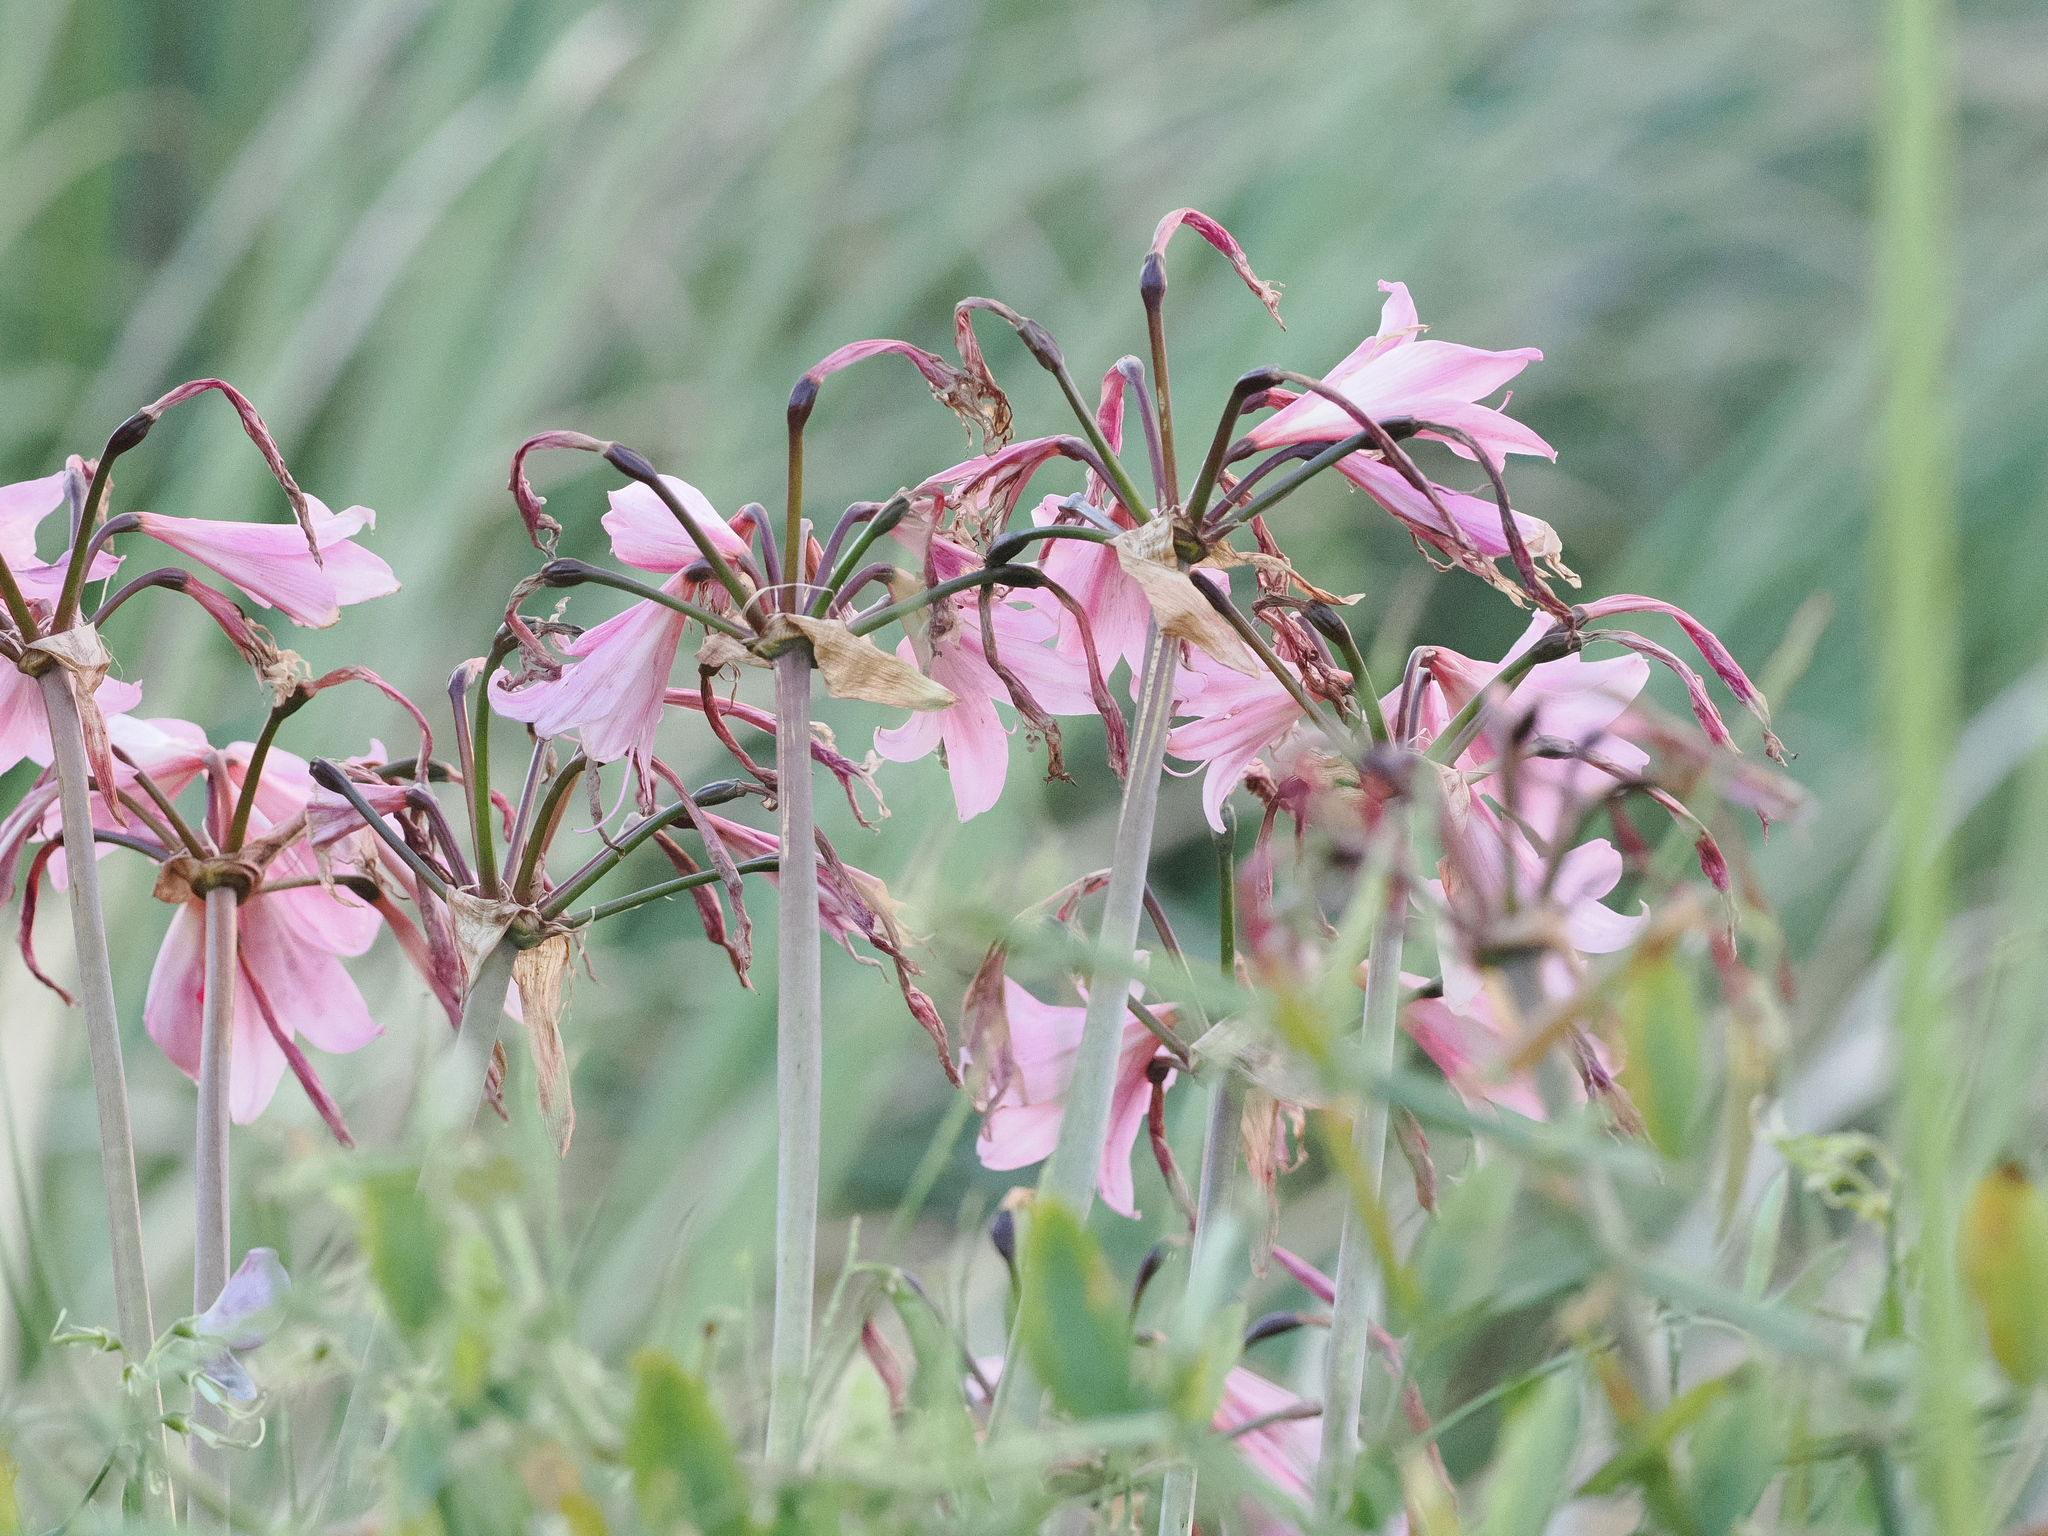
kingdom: Plantae
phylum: Tracheophyta
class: Liliopsida
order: Asparagales
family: Amaryllidaceae
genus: Amaryllis
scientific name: Amaryllis belladonna
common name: Jersey lily
